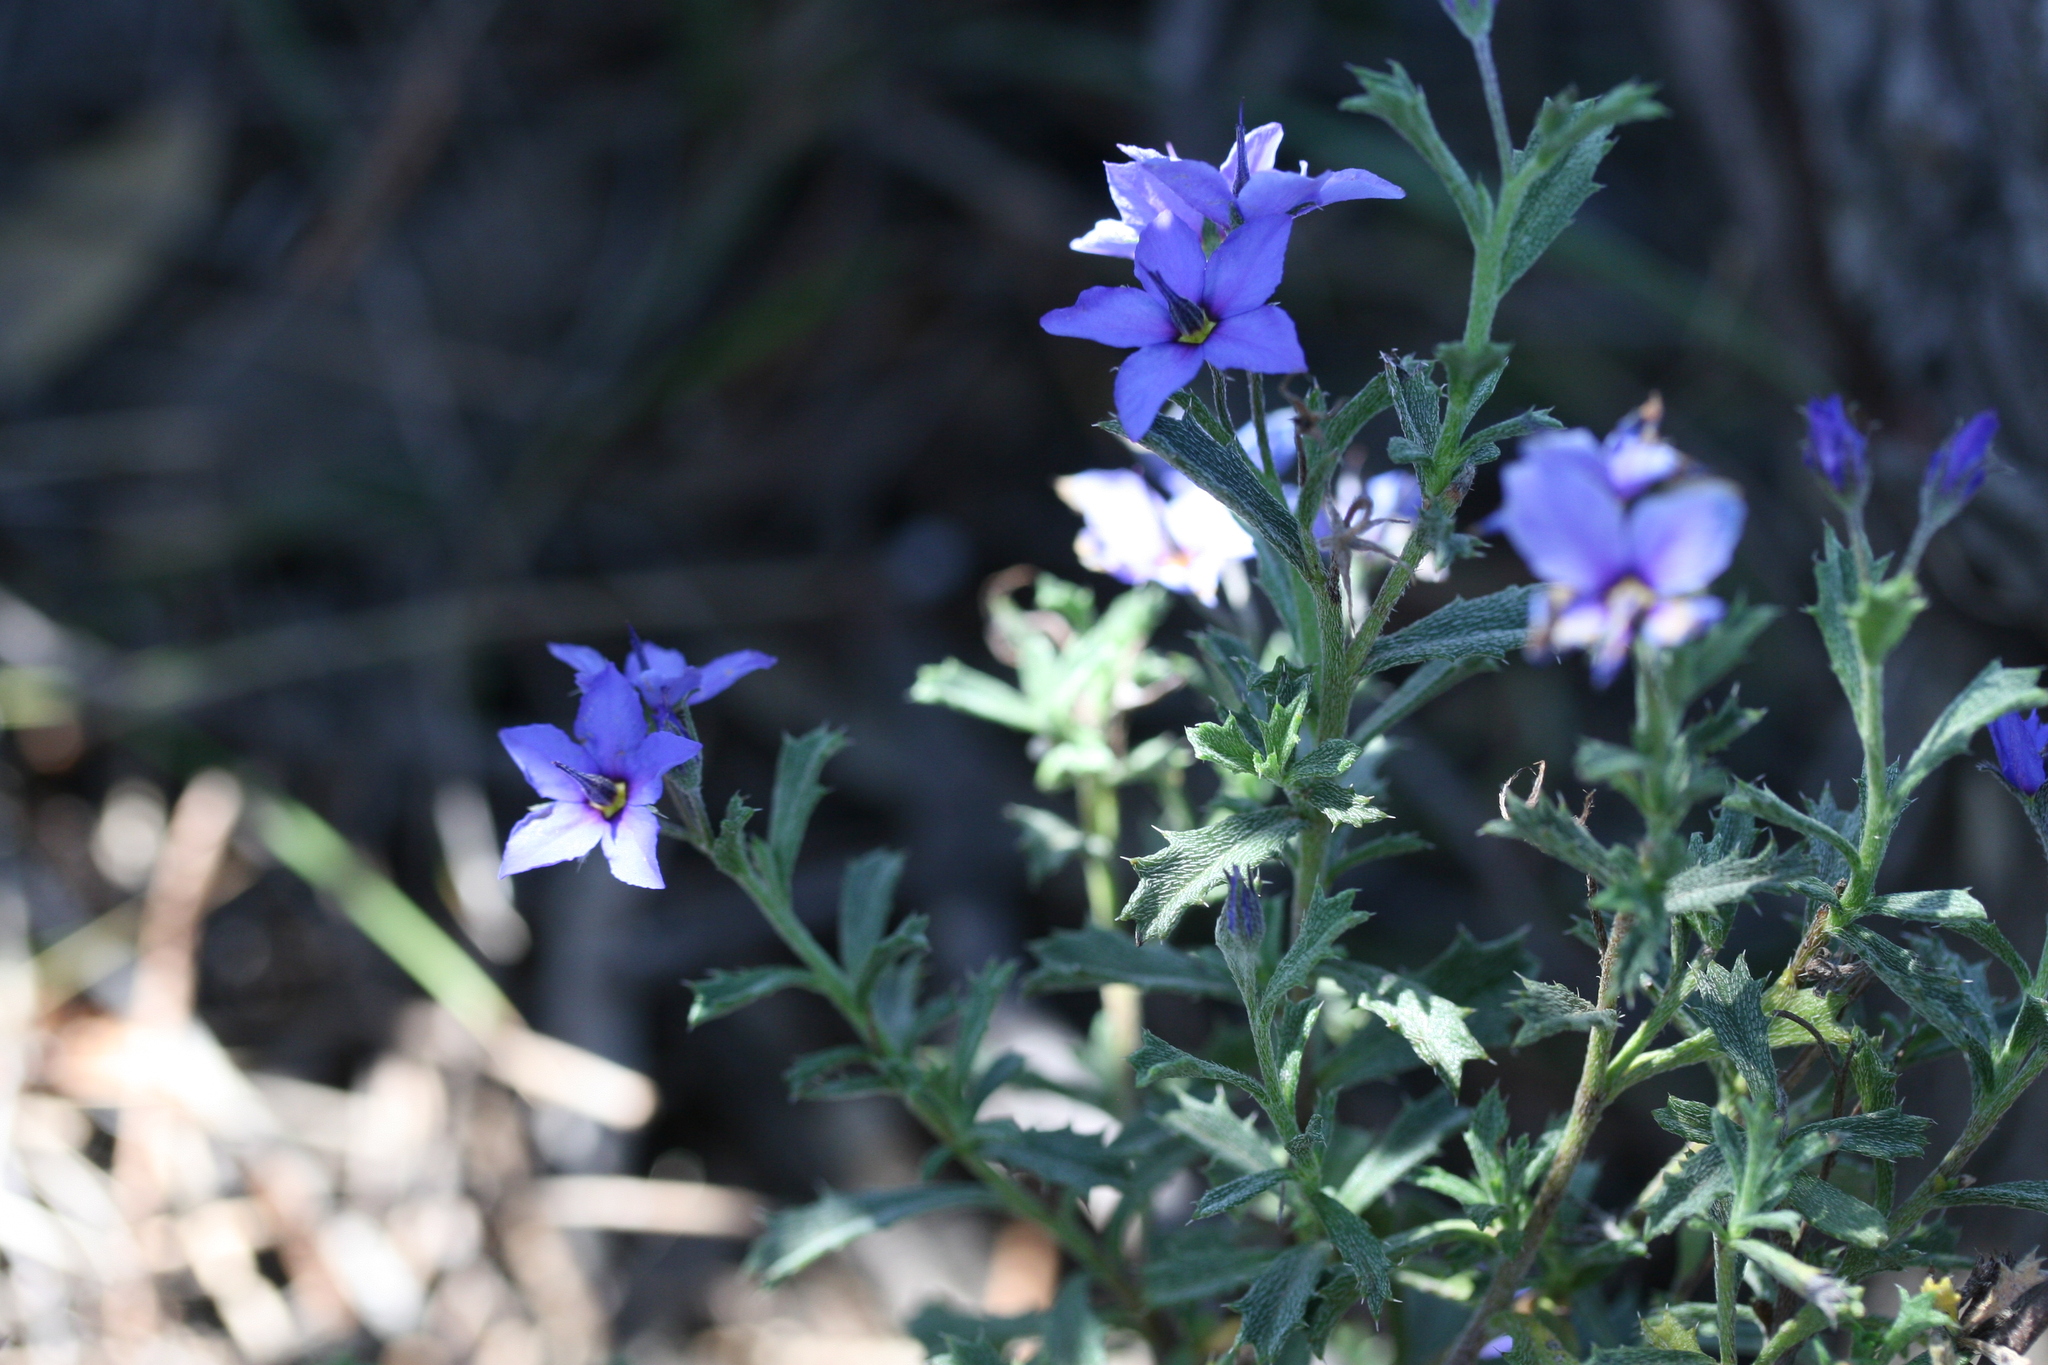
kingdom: Plantae
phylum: Tracheophyta
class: Magnoliopsida
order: Boraginales
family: Ehretiaceae
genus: Halgania
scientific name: Halgania anagalloides
